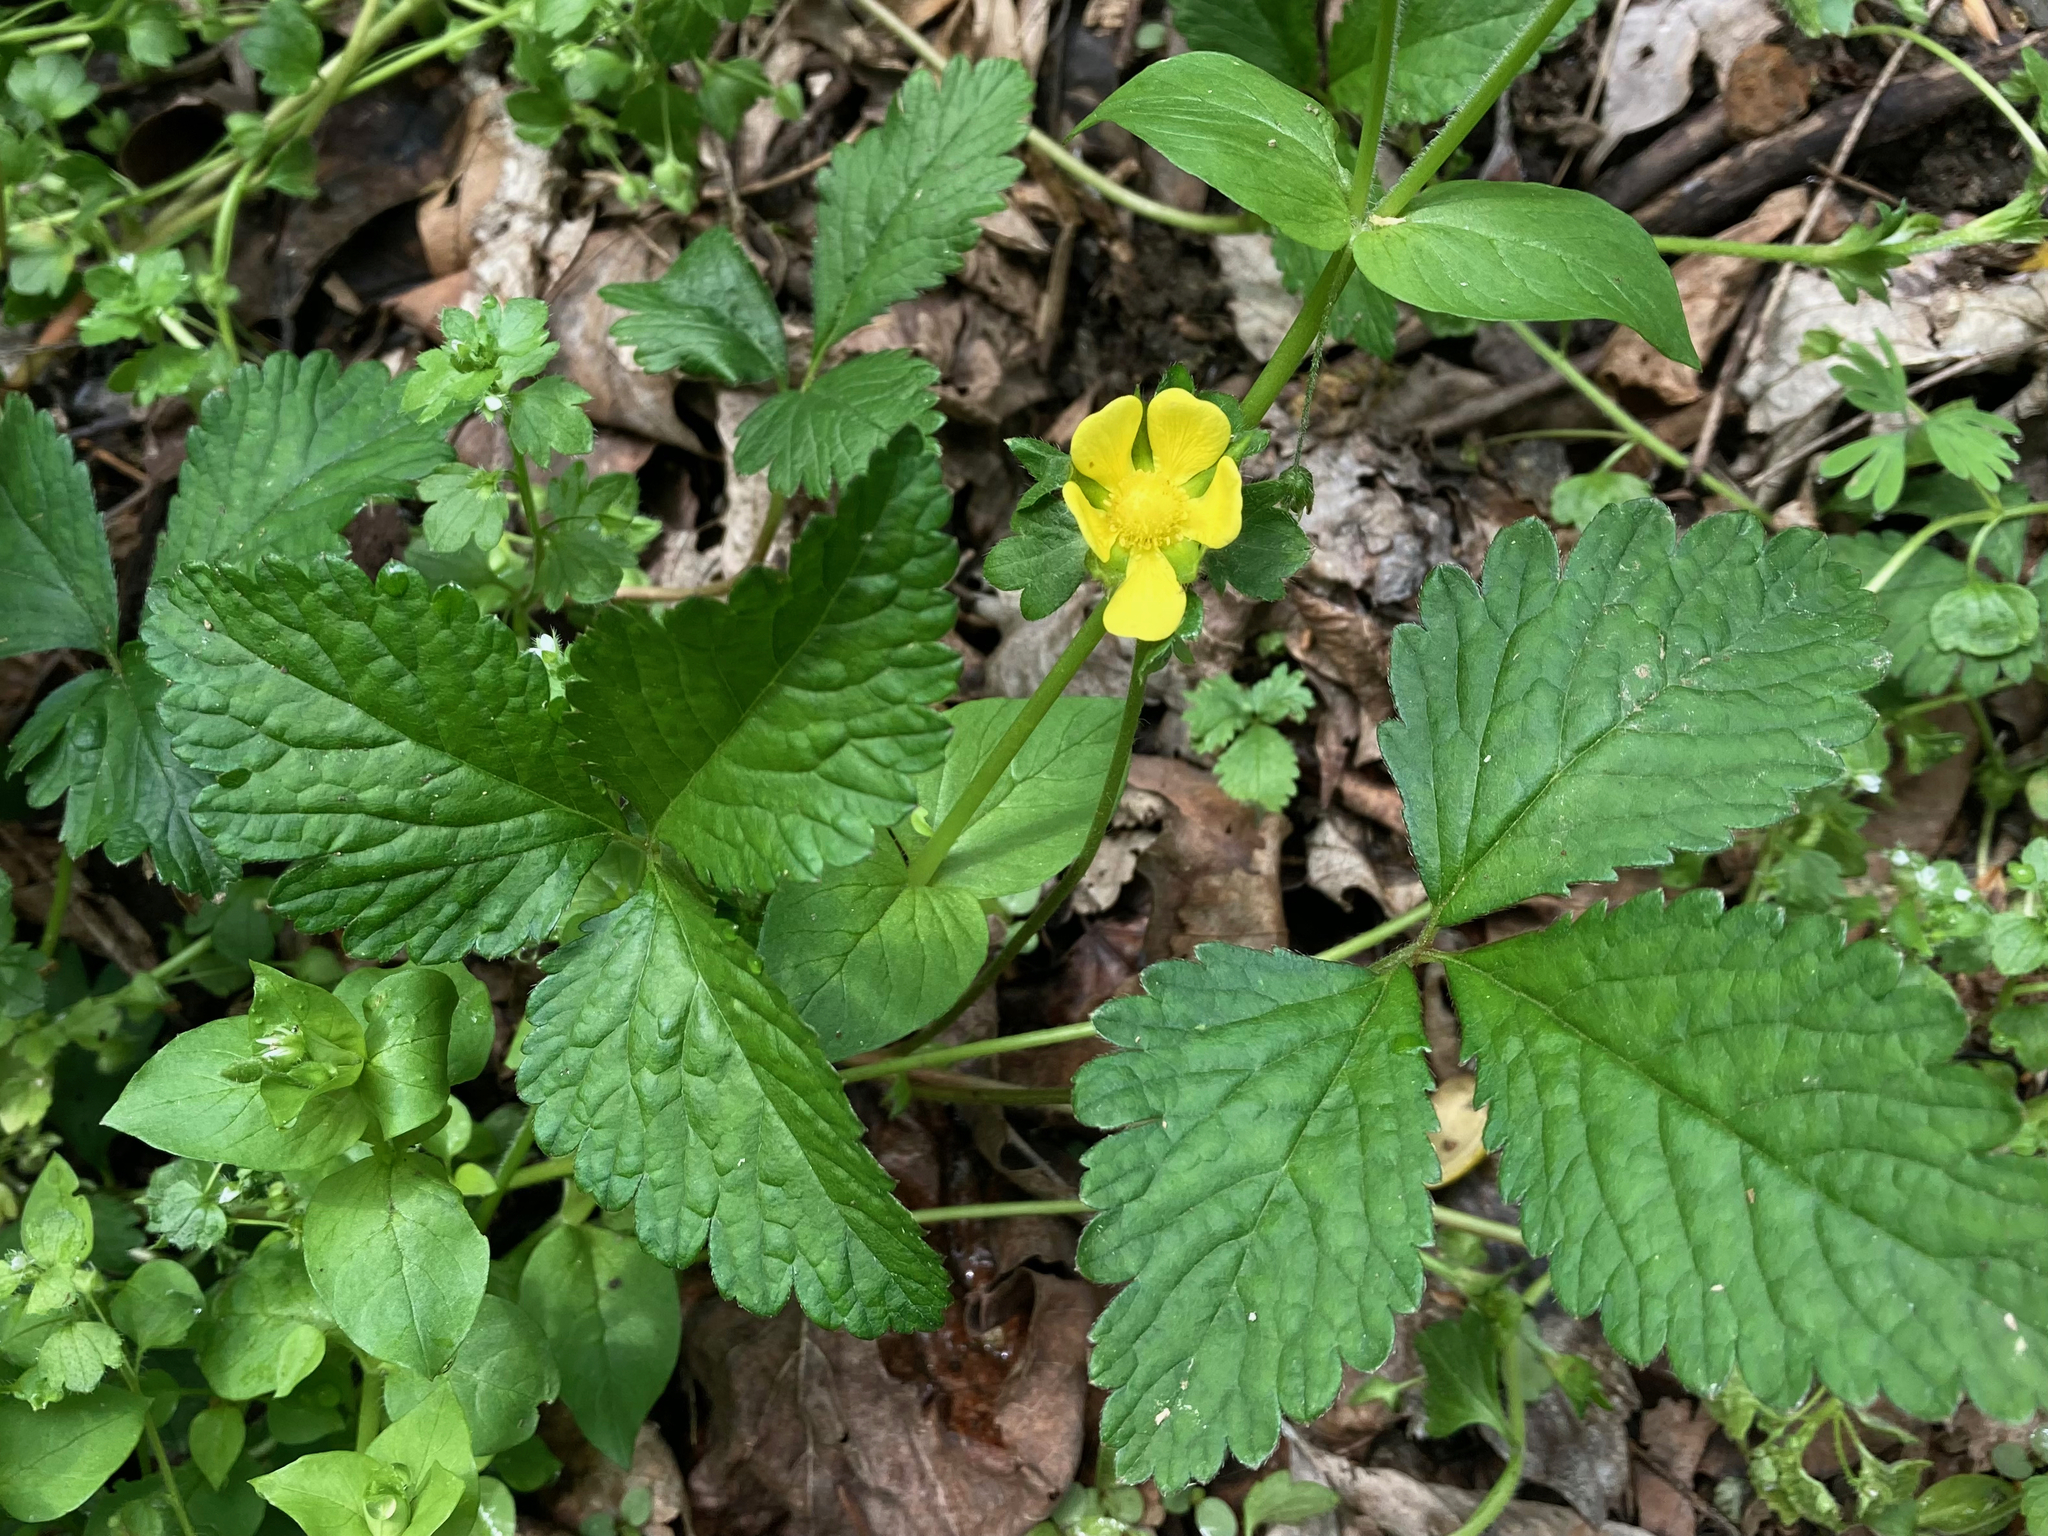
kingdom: Plantae
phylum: Tracheophyta
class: Magnoliopsida
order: Rosales
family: Rosaceae
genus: Potentilla
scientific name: Potentilla indica
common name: Yellow-flowered strawberry
